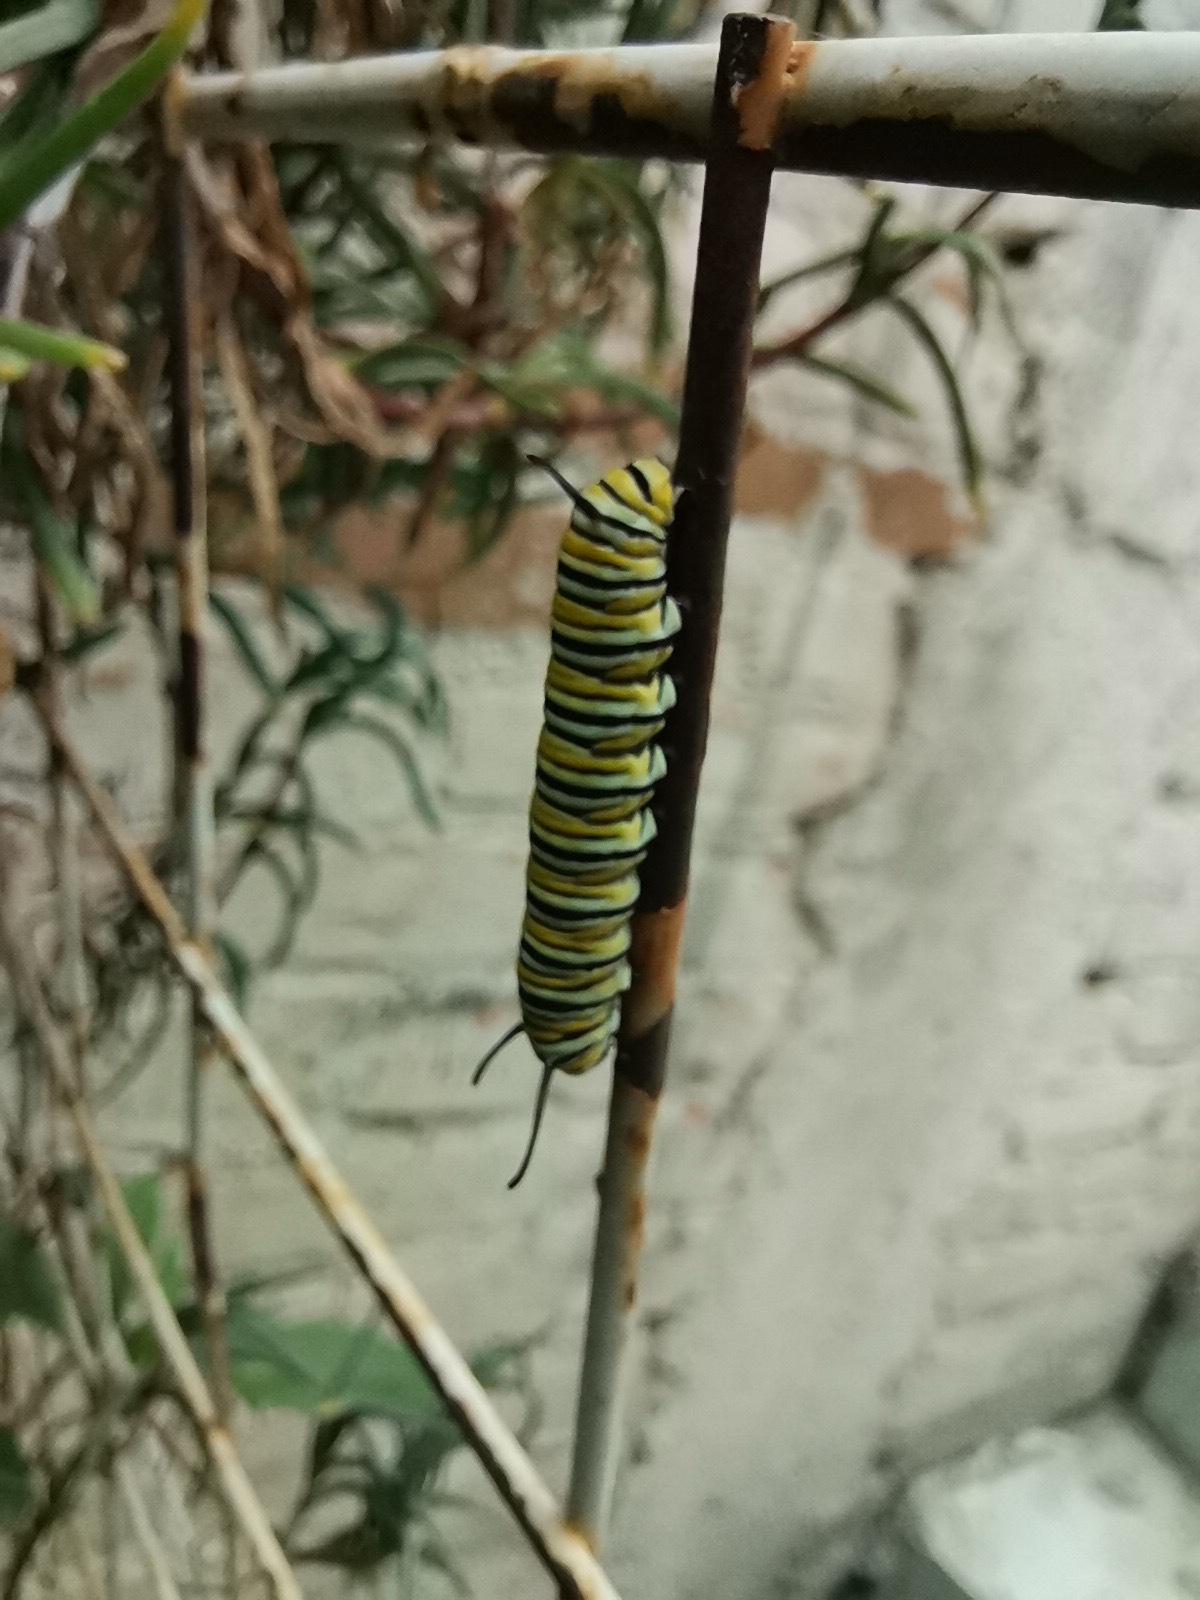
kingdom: Animalia
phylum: Arthropoda
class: Insecta
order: Lepidoptera
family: Nymphalidae
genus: Danaus
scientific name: Danaus plexippus
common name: Monarch
